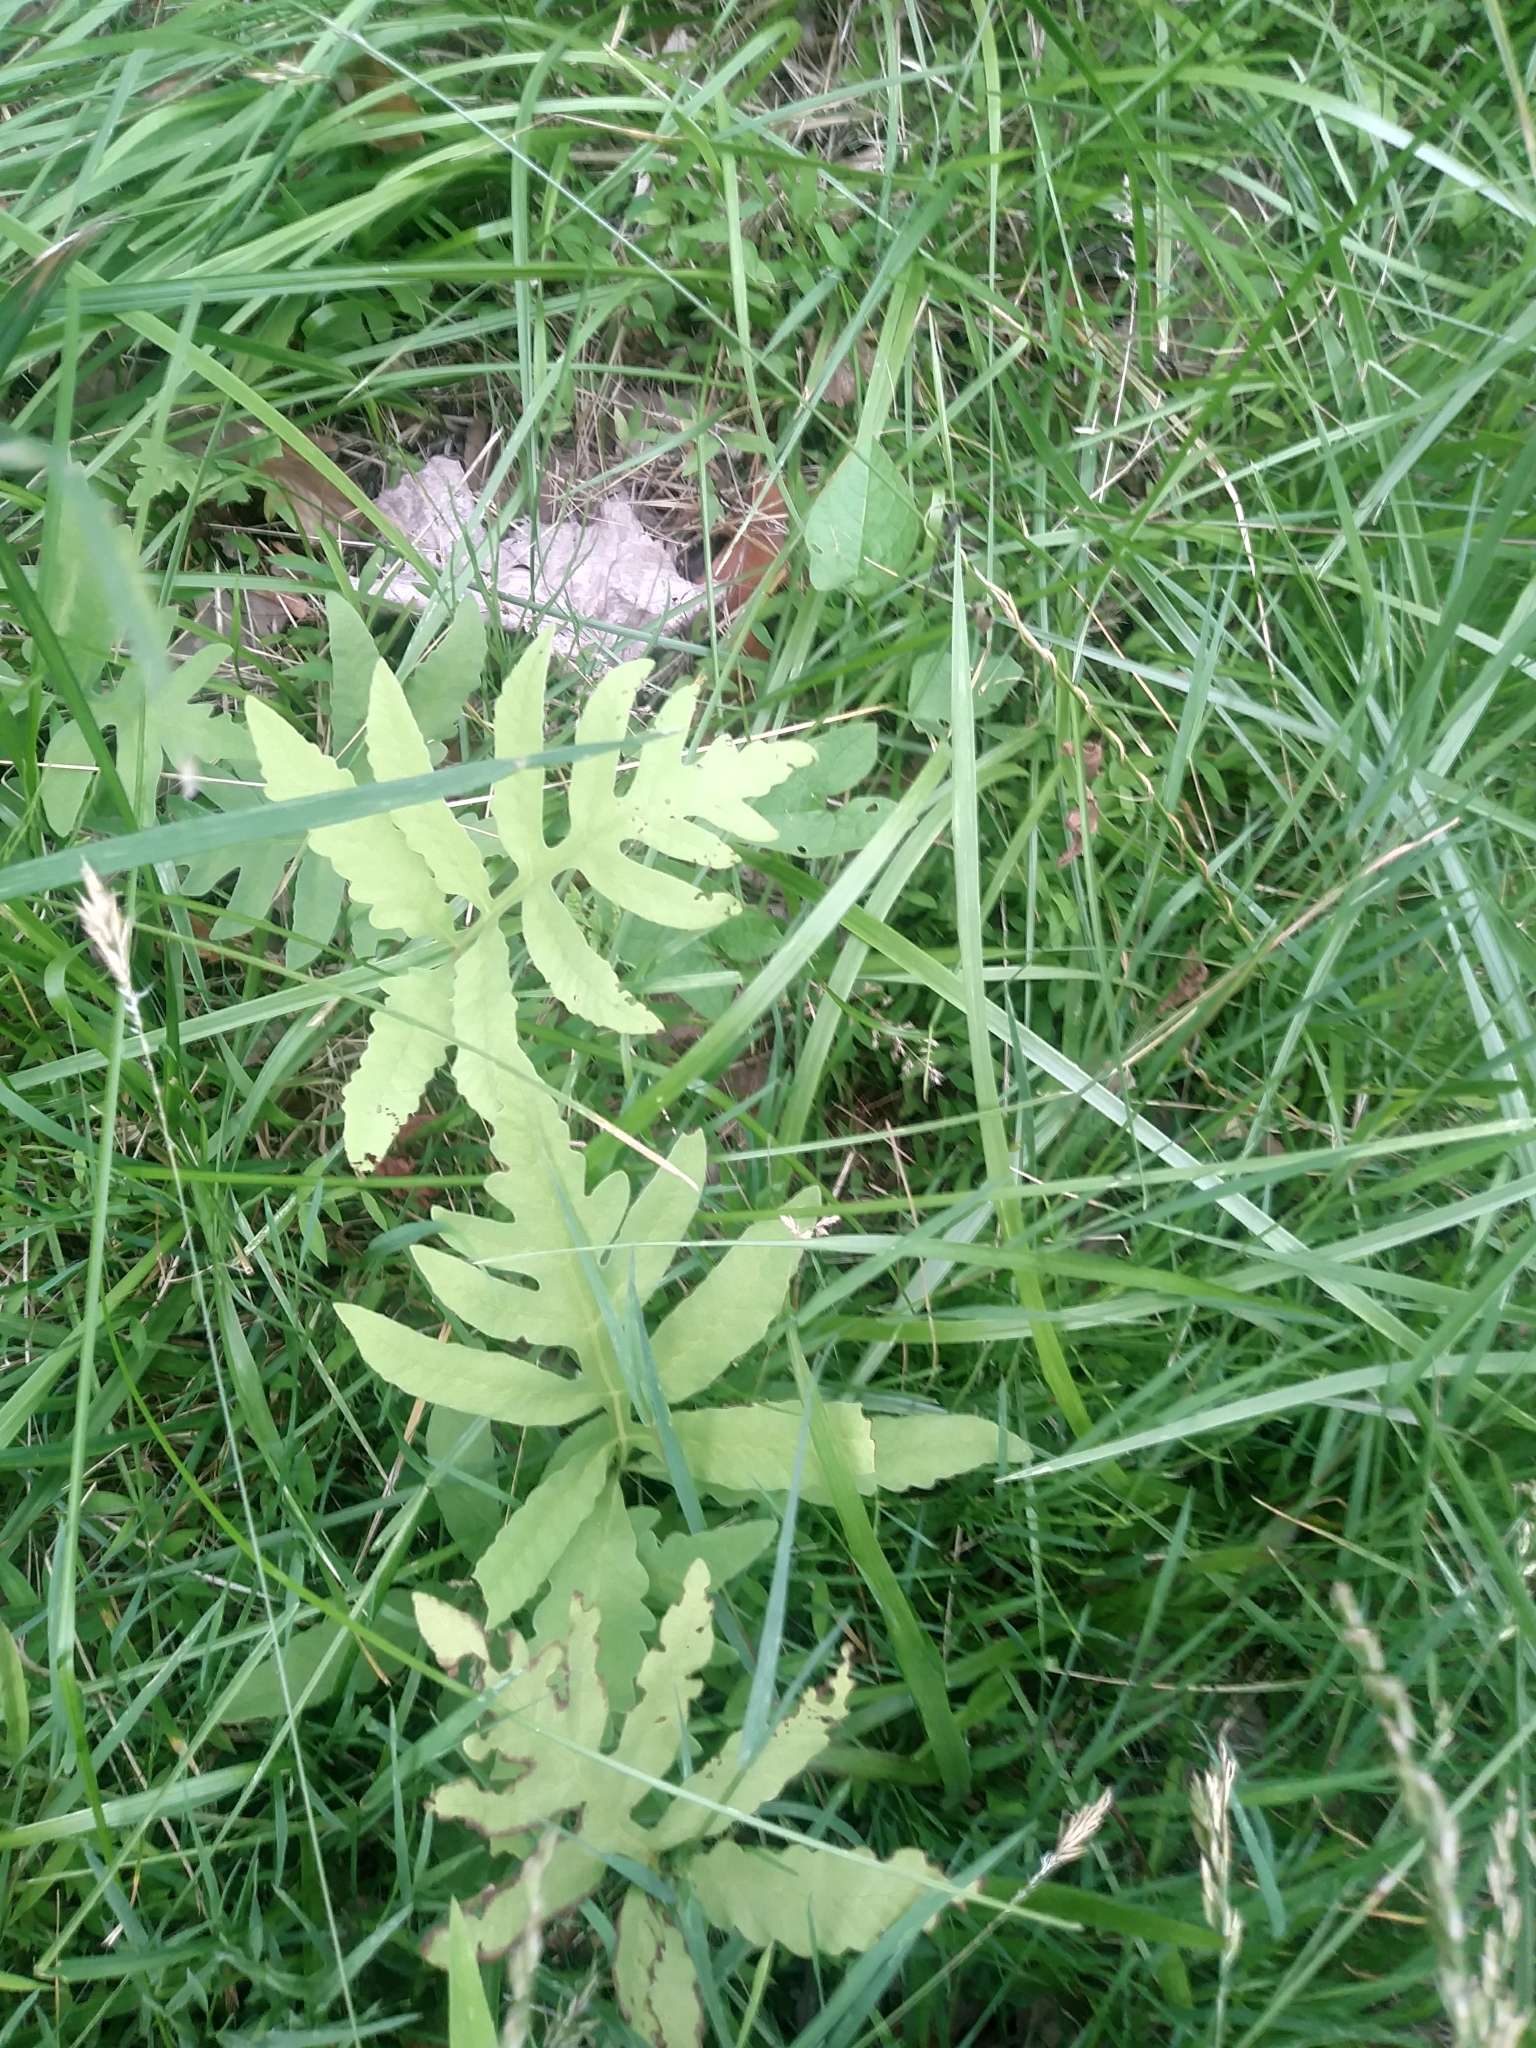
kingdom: Plantae
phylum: Tracheophyta
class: Polypodiopsida
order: Polypodiales
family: Onocleaceae
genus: Onoclea
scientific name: Onoclea sensibilis
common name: Sensitive fern
